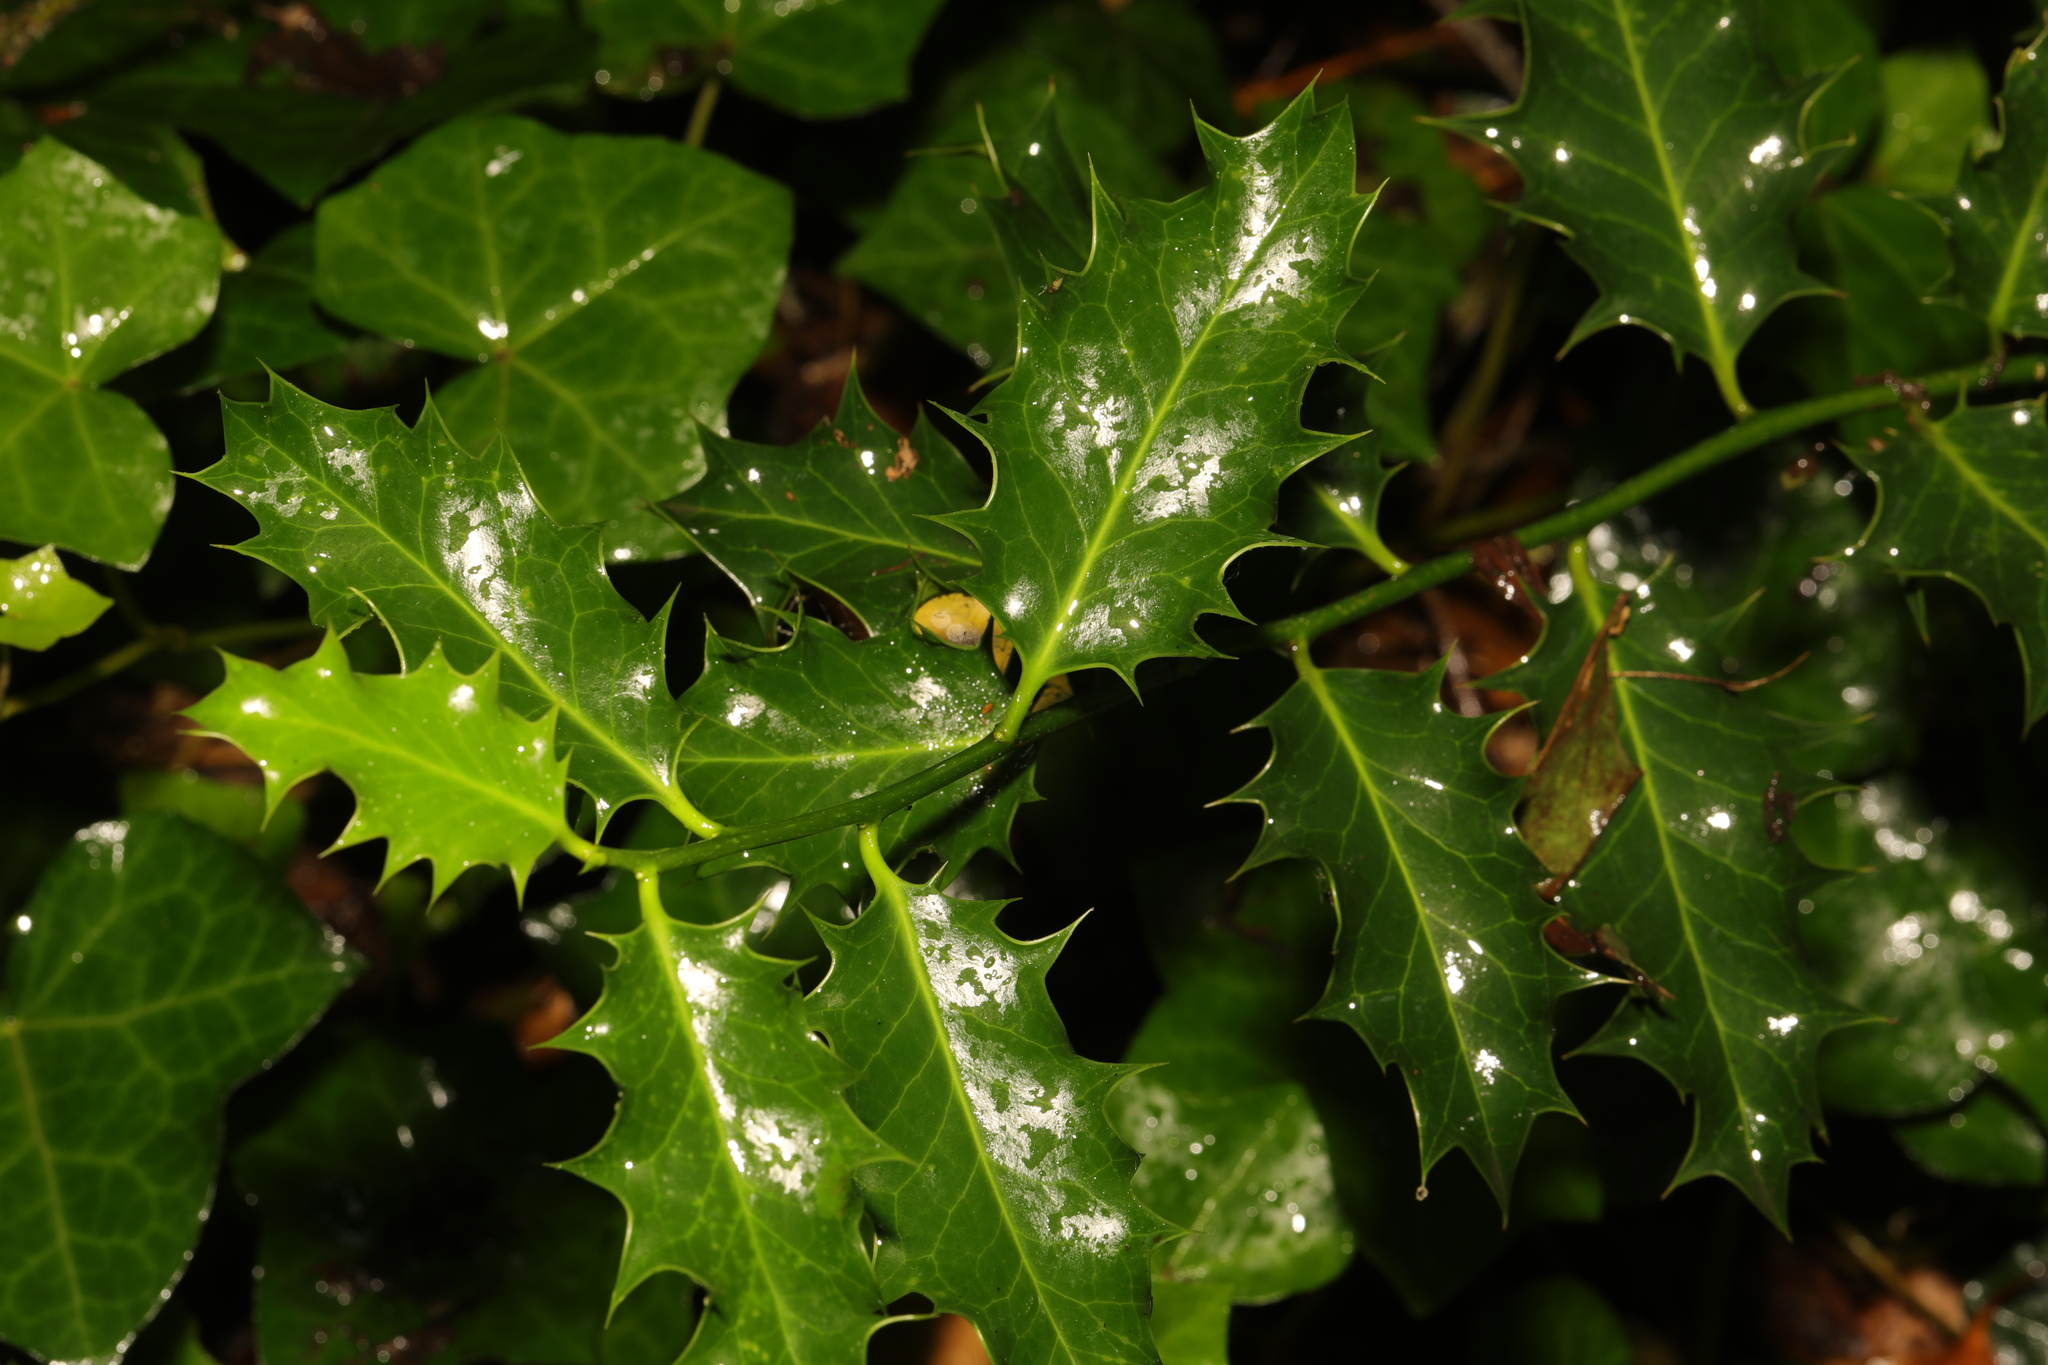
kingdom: Plantae
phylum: Tracheophyta
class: Magnoliopsida
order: Aquifoliales
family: Aquifoliaceae
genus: Ilex
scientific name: Ilex aquifolium
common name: English holly
